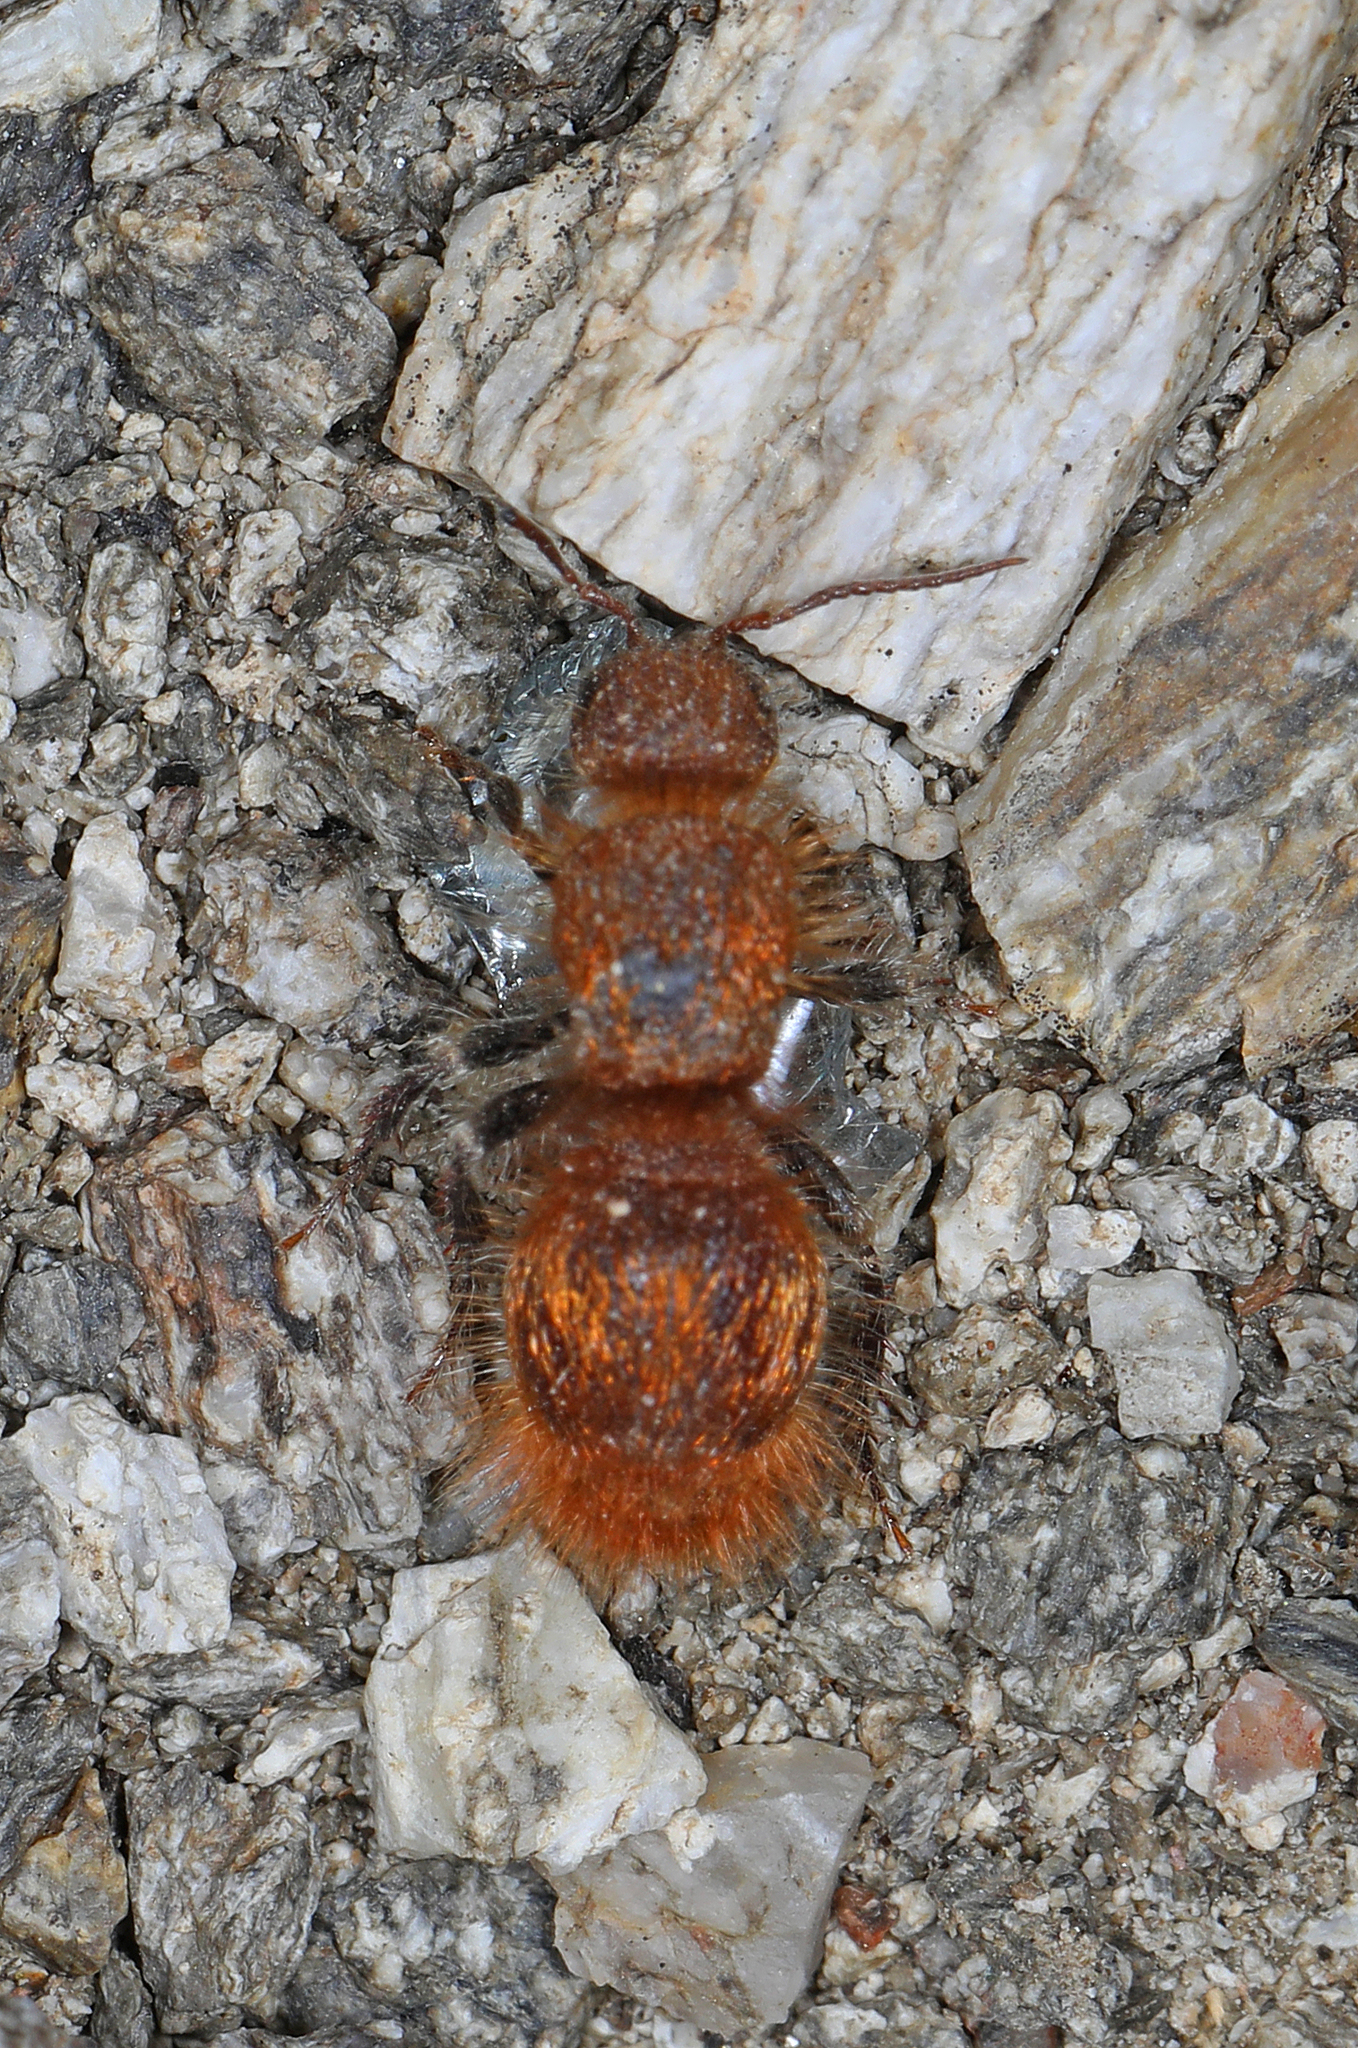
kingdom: Animalia
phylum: Arthropoda
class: Insecta
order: Hymenoptera
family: Mutillidae
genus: Sphaeropthalma
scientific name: Sphaeropthalma unicolor
